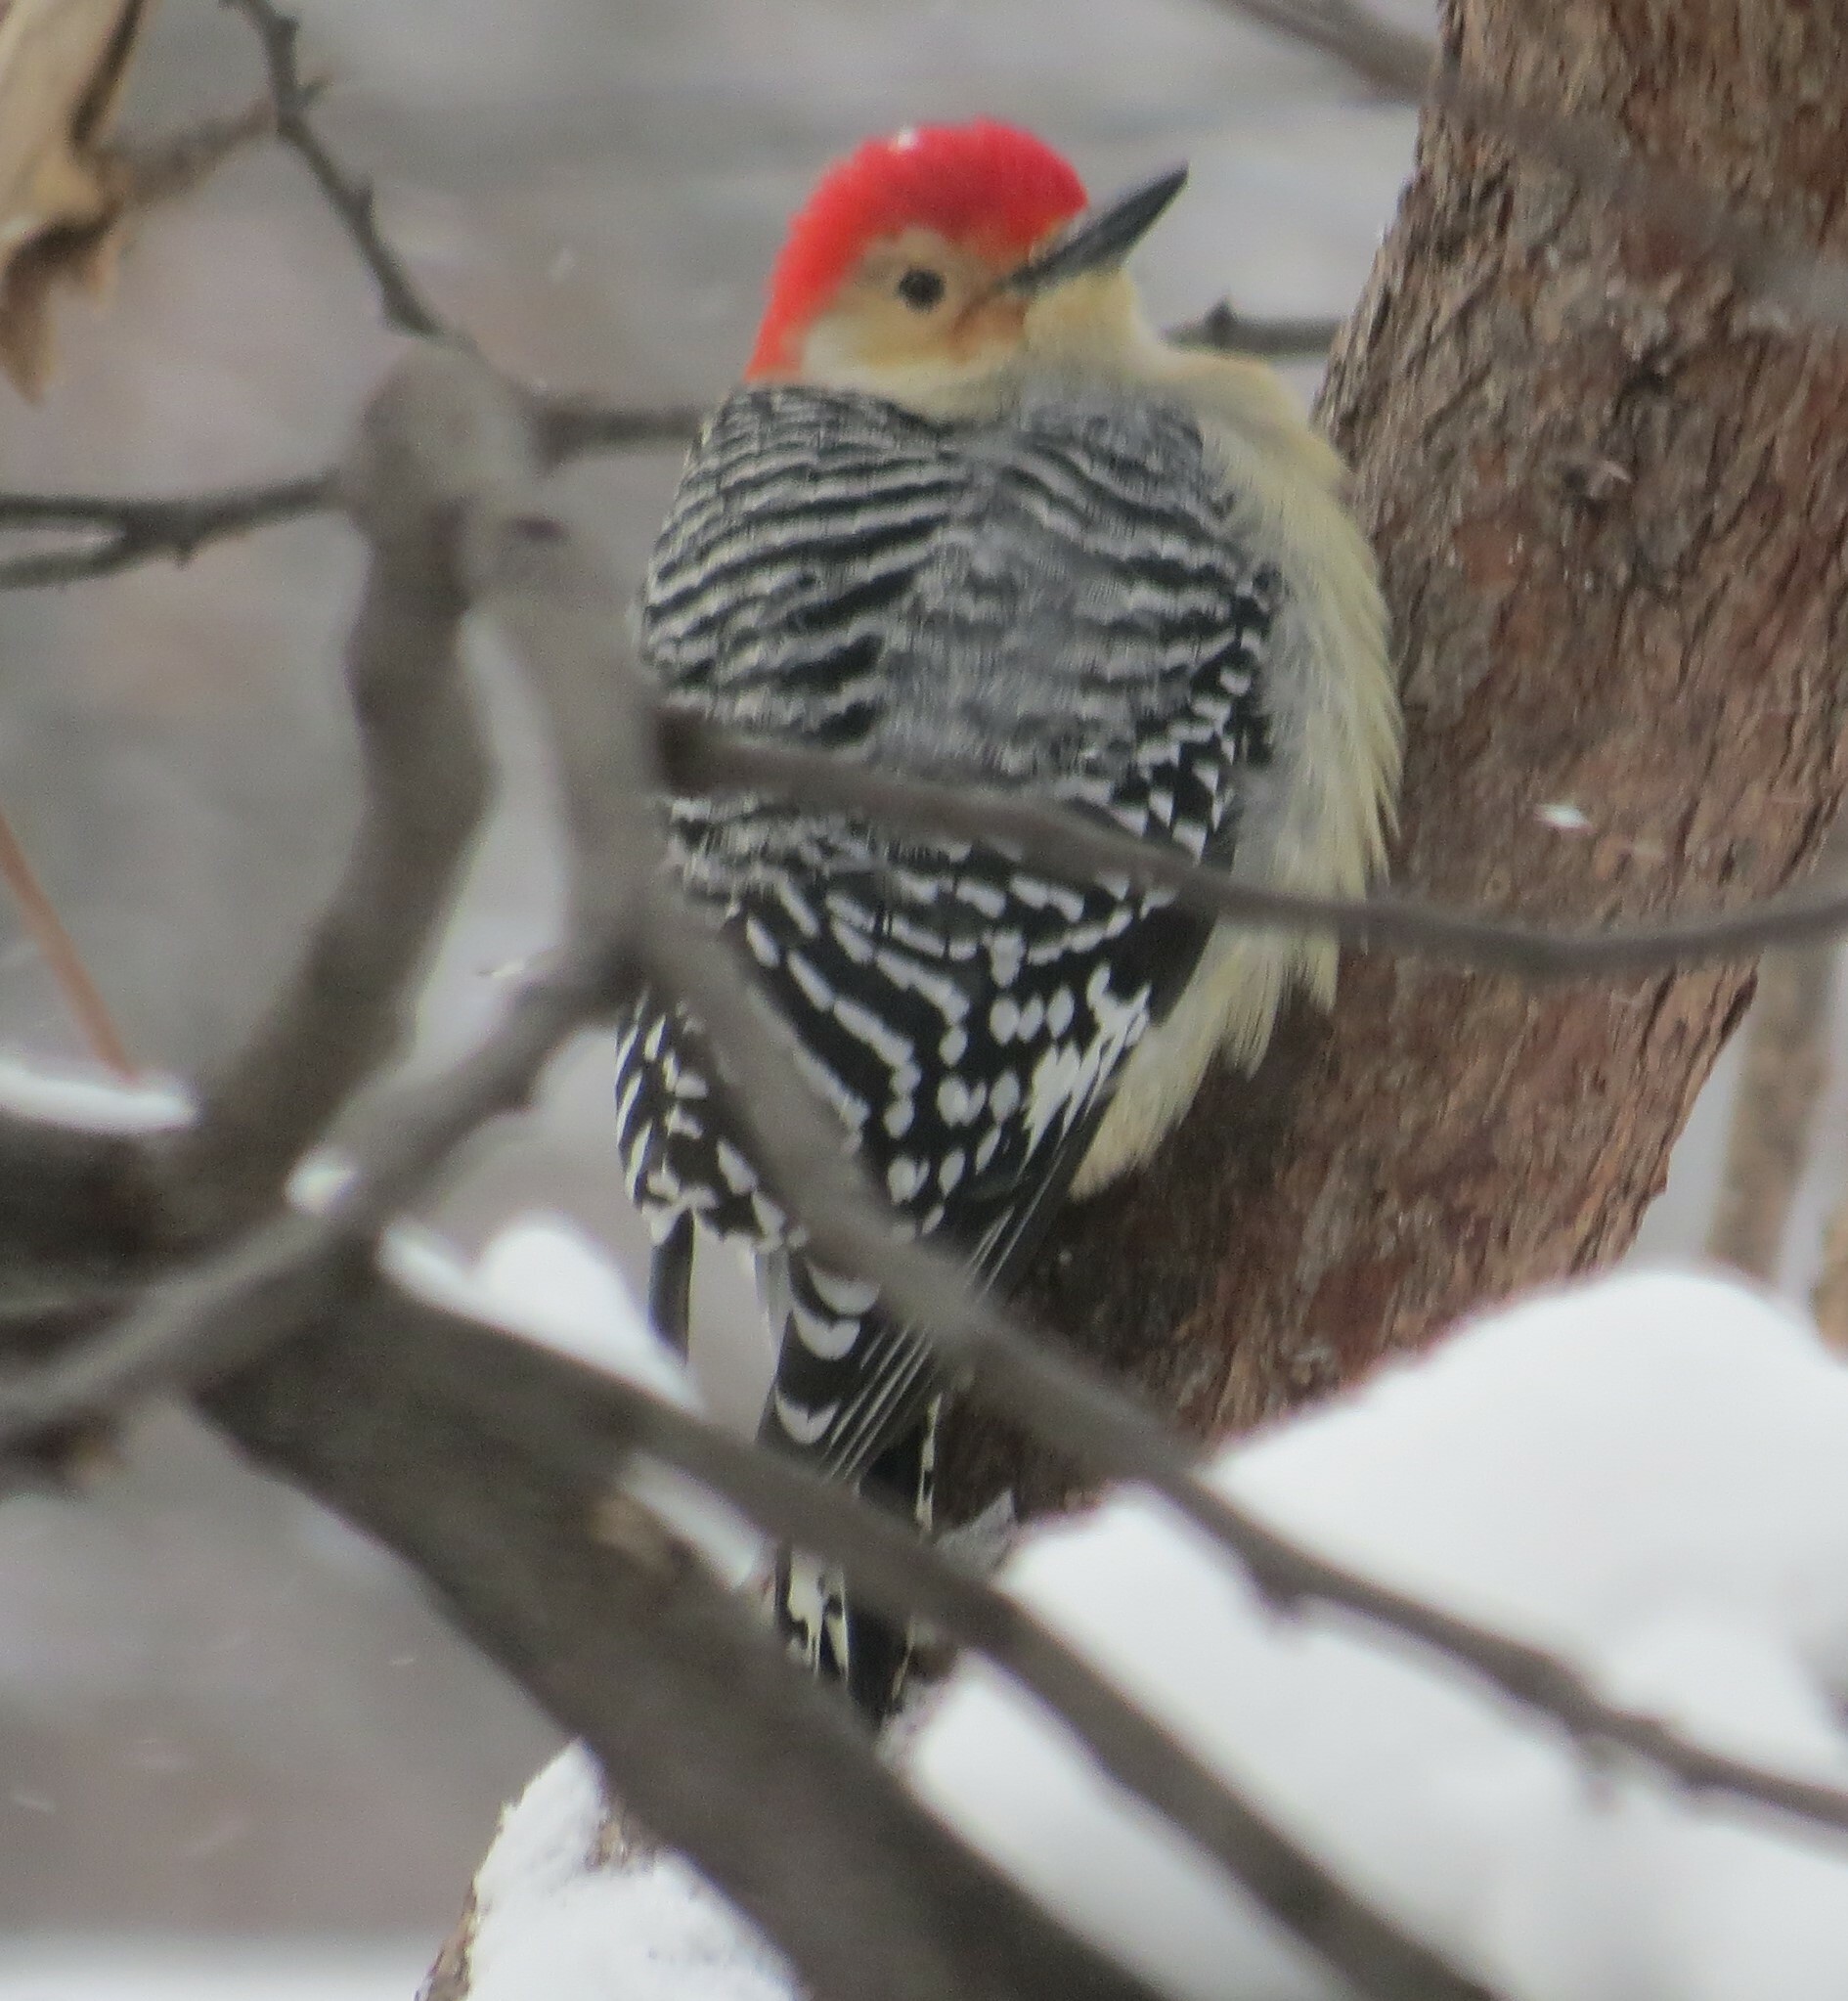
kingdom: Animalia
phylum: Chordata
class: Aves
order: Piciformes
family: Picidae
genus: Melanerpes
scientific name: Melanerpes carolinus
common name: Red-bellied woodpecker
